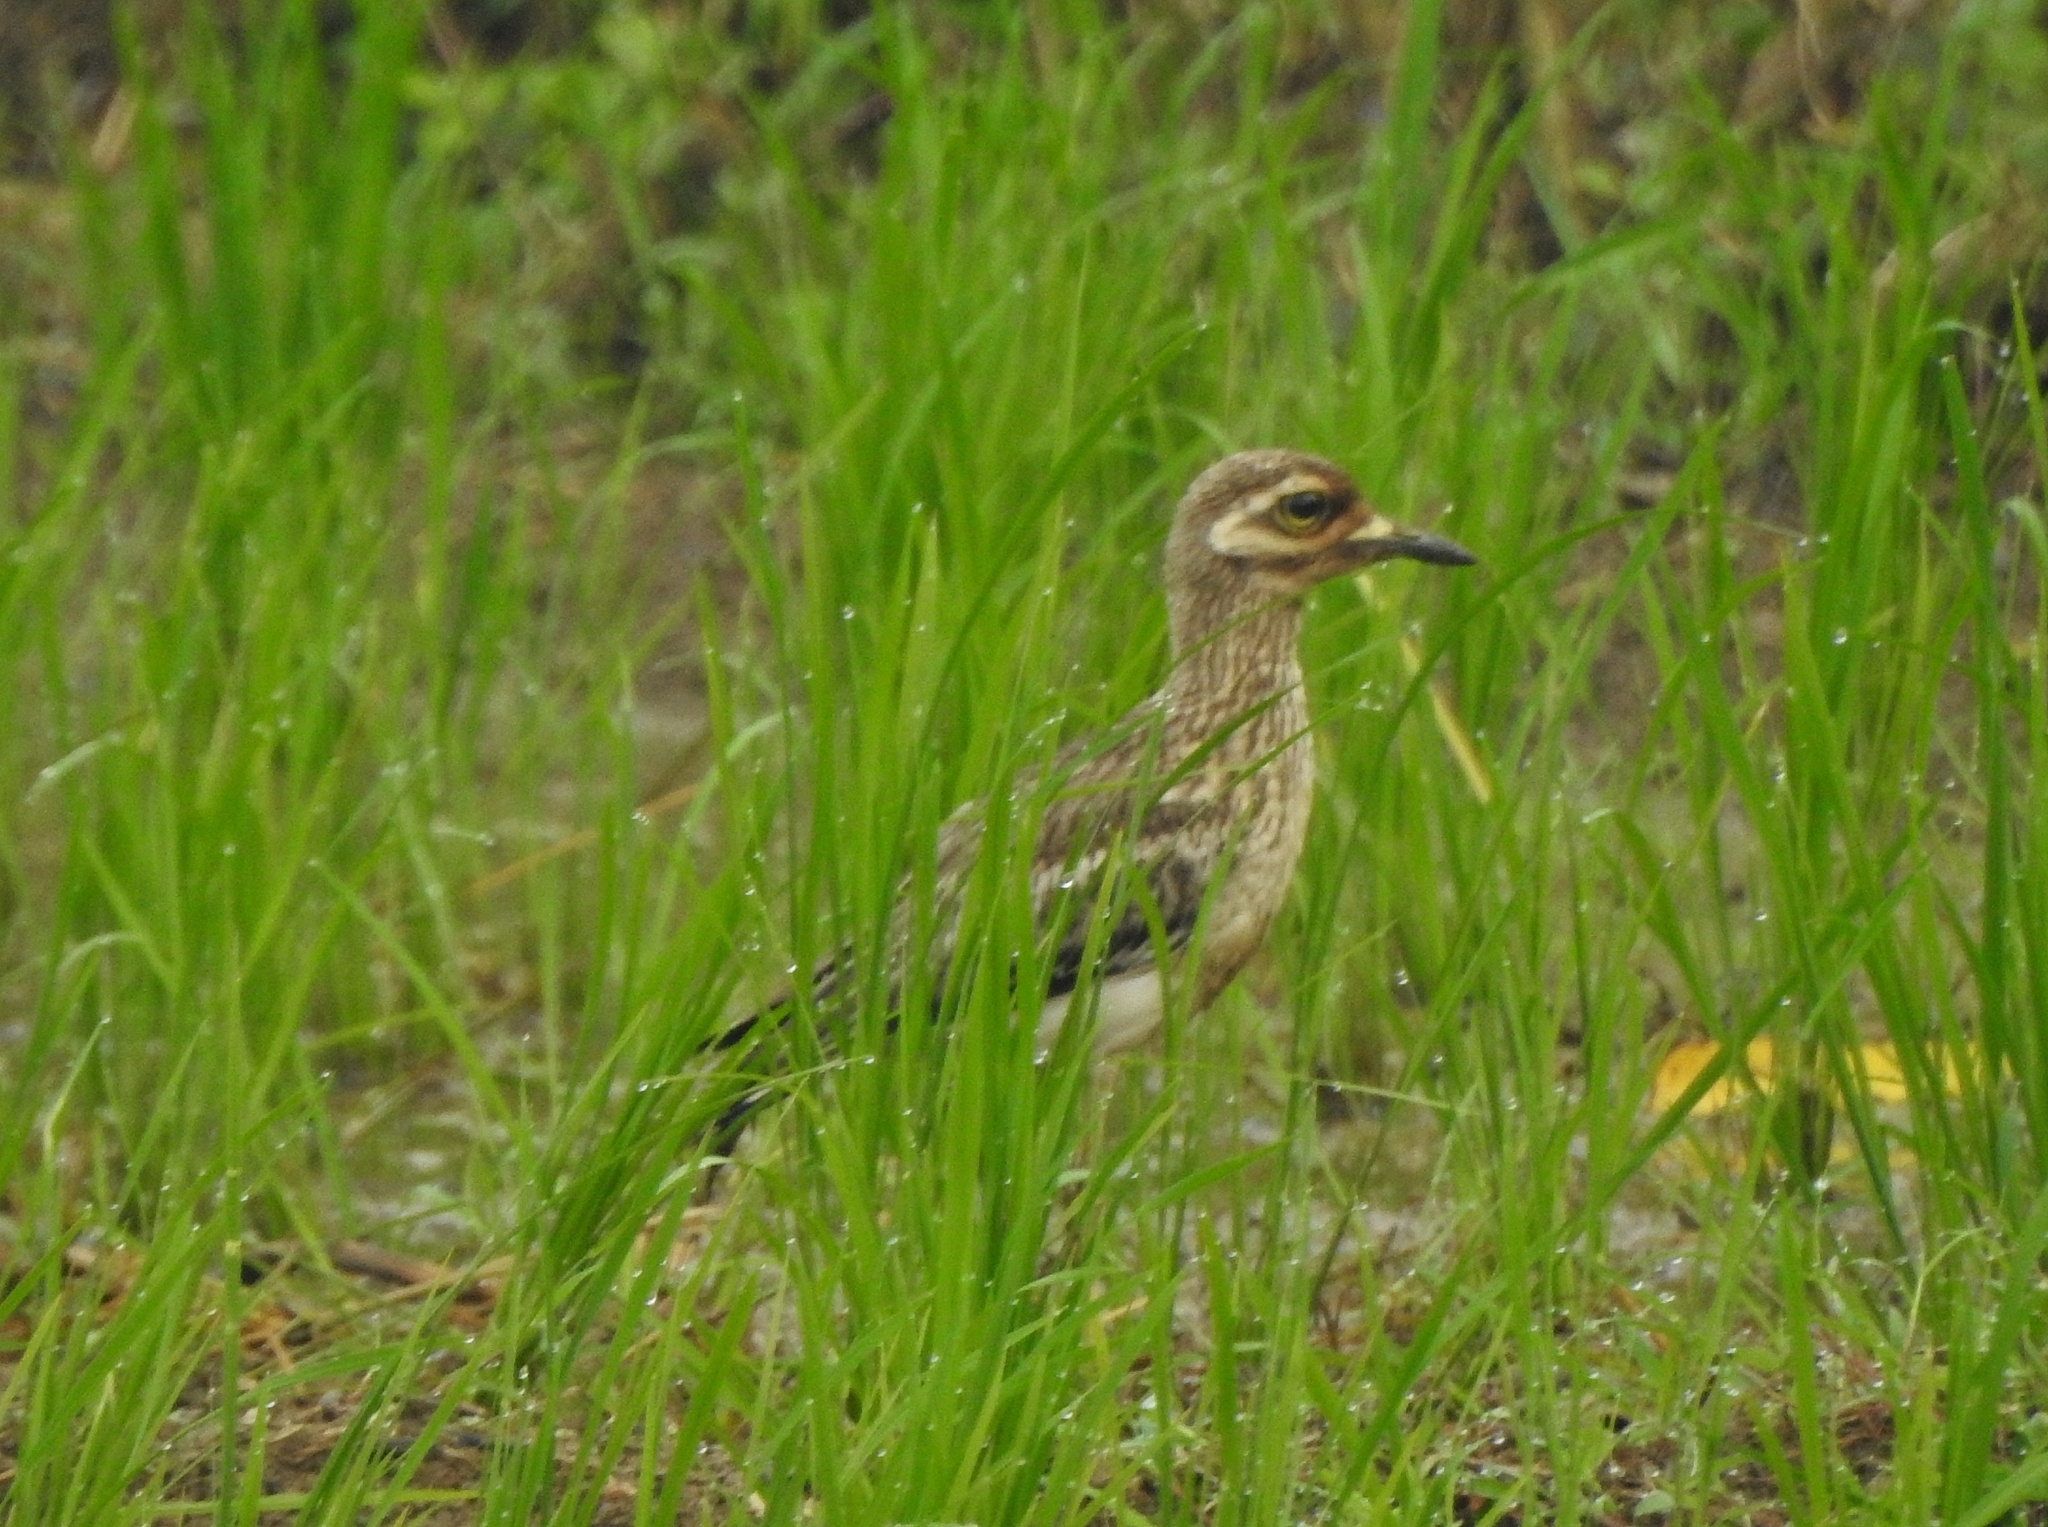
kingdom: Animalia
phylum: Chordata
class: Aves
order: Charadriiformes
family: Burhinidae
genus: Burhinus
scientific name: Burhinus indicus
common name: Indian thick-knee
